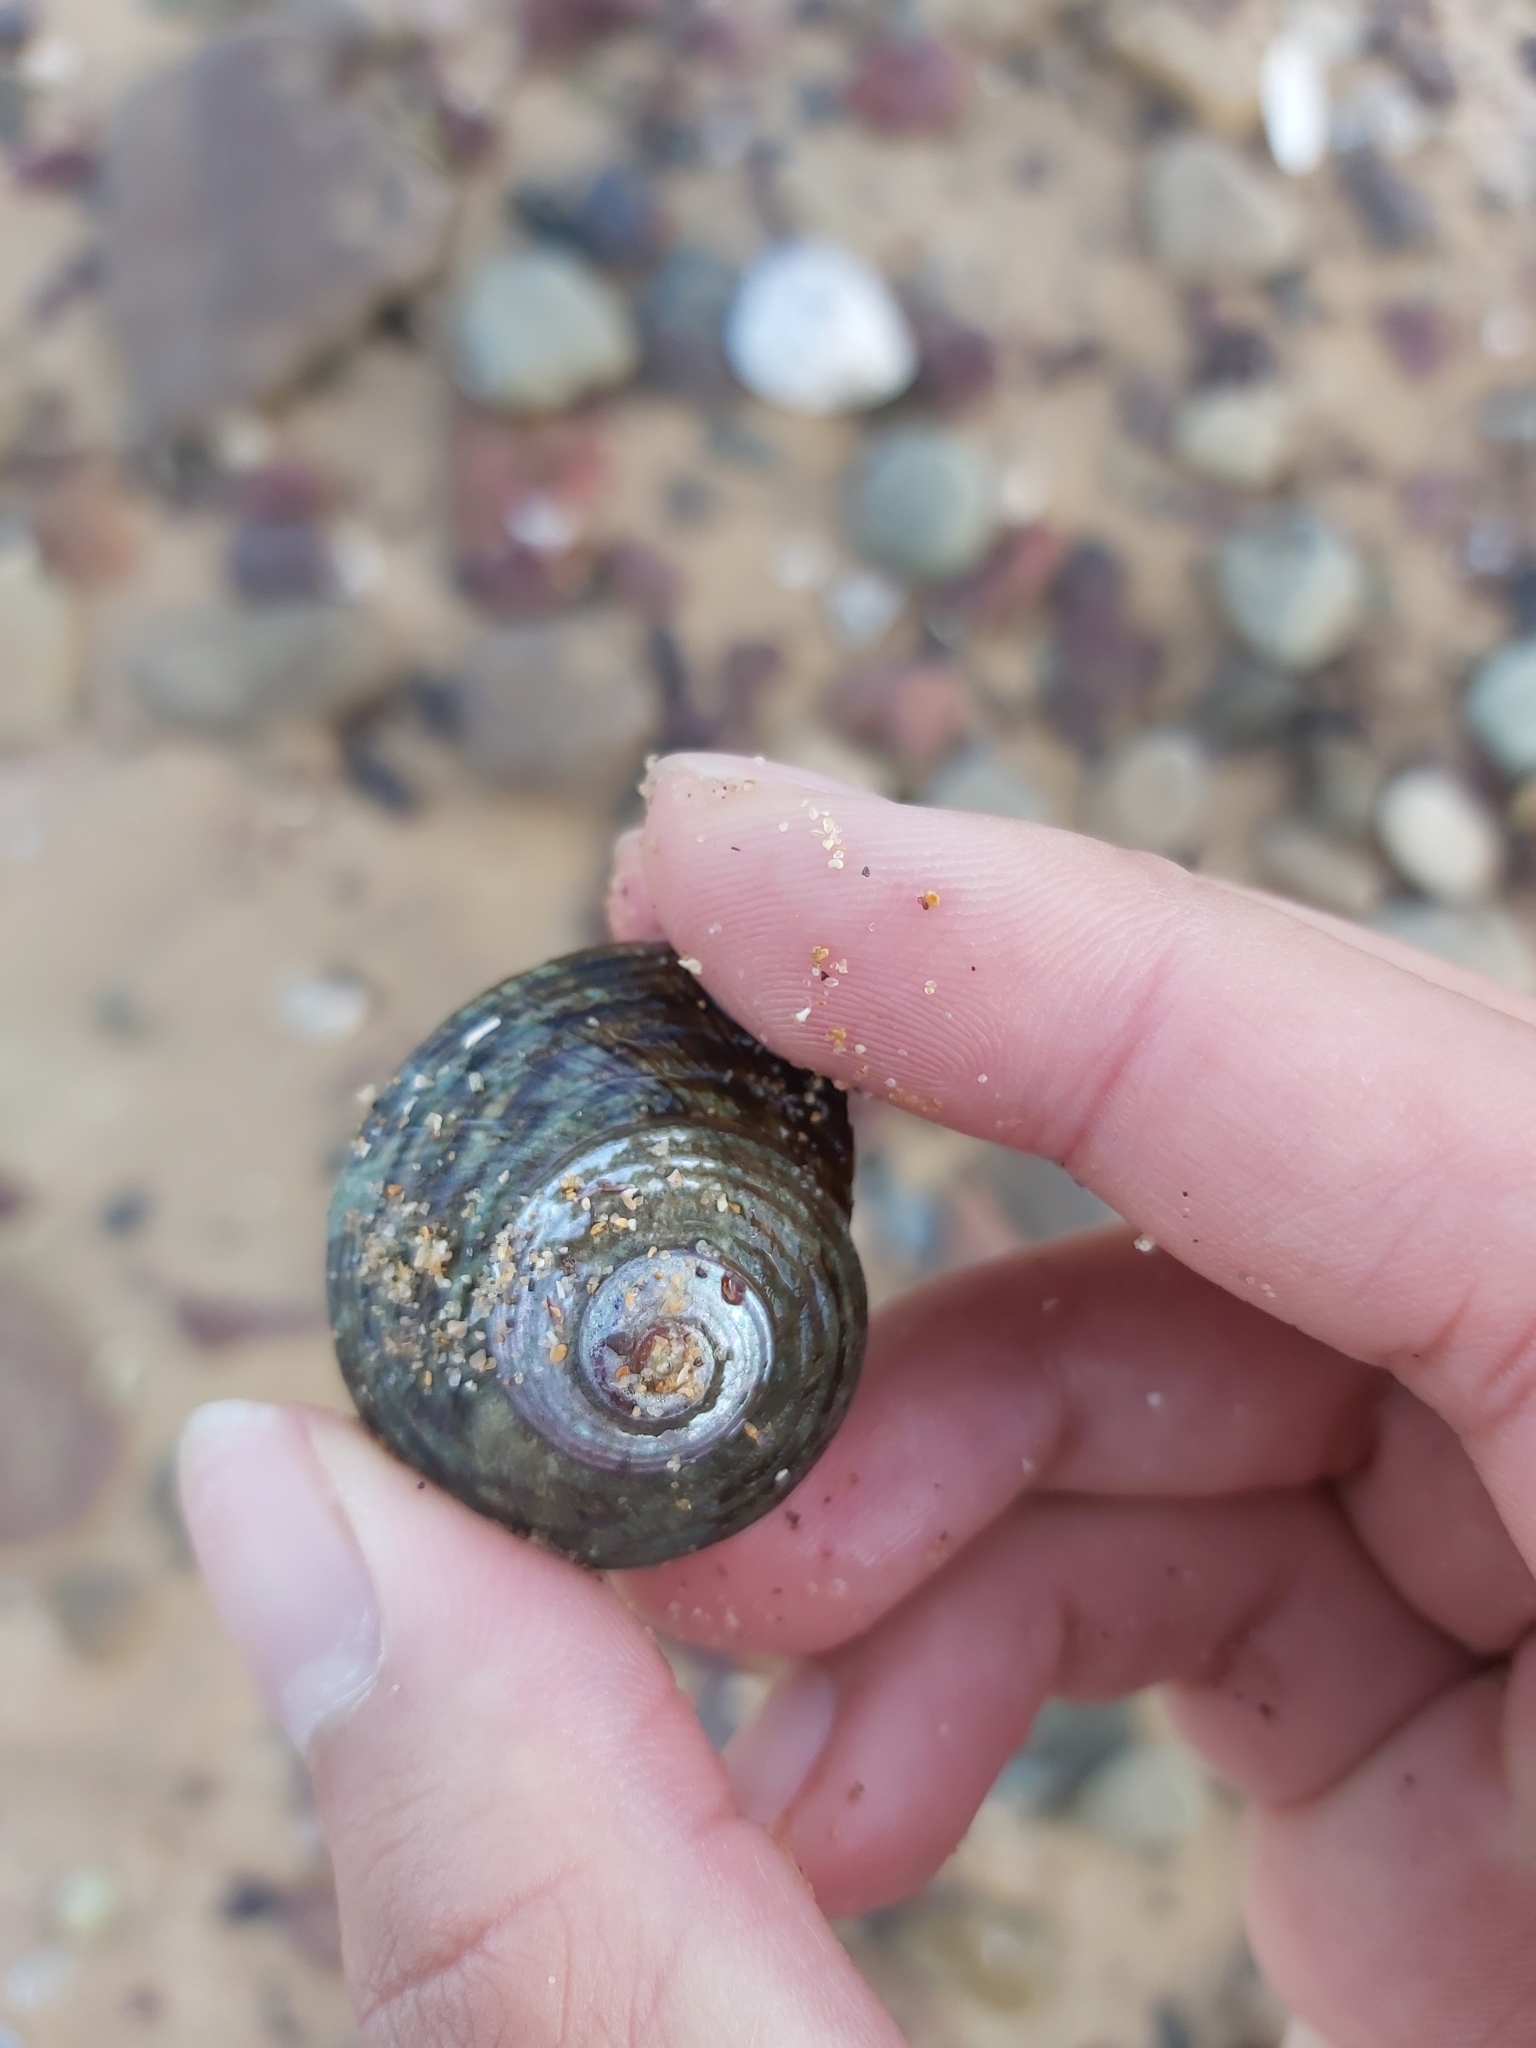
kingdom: Animalia
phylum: Mollusca
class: Gastropoda
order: Trochida
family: Turbinidae
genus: Lunella
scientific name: Lunella undulata
